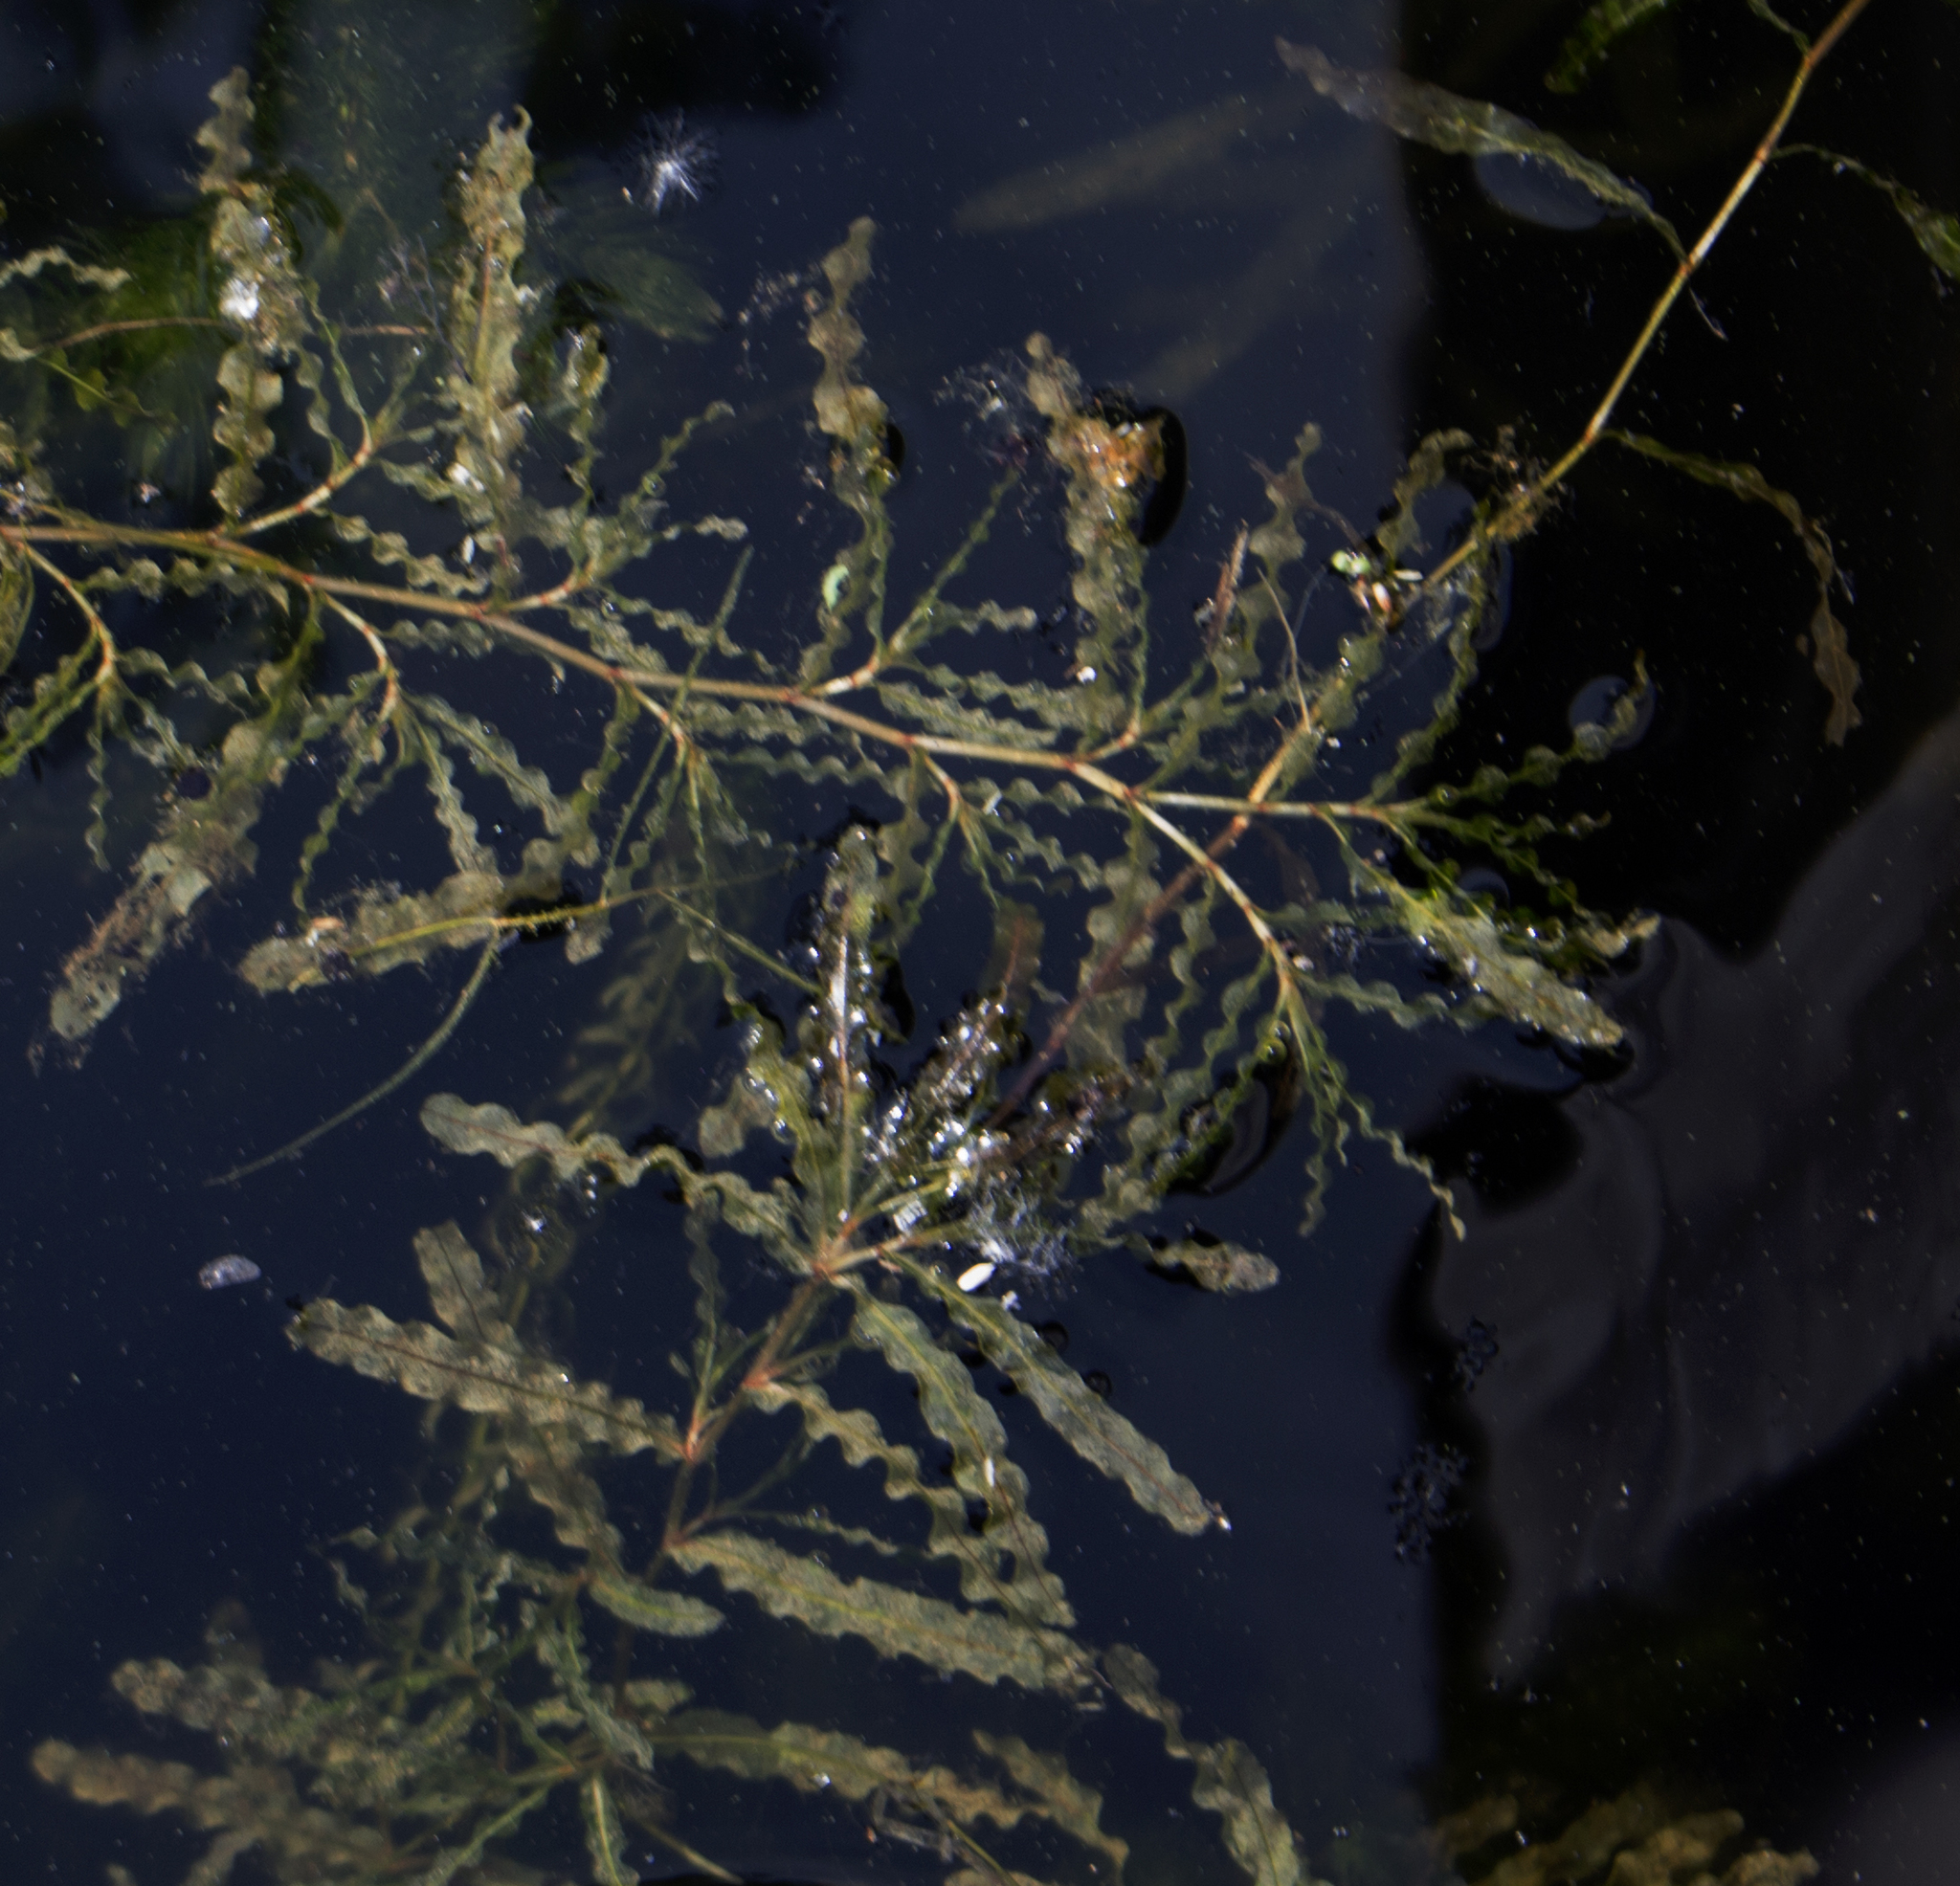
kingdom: Plantae
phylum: Tracheophyta
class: Liliopsida
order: Alismatales
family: Potamogetonaceae
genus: Potamogeton
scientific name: Potamogeton crispus
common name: Curled pondweed
